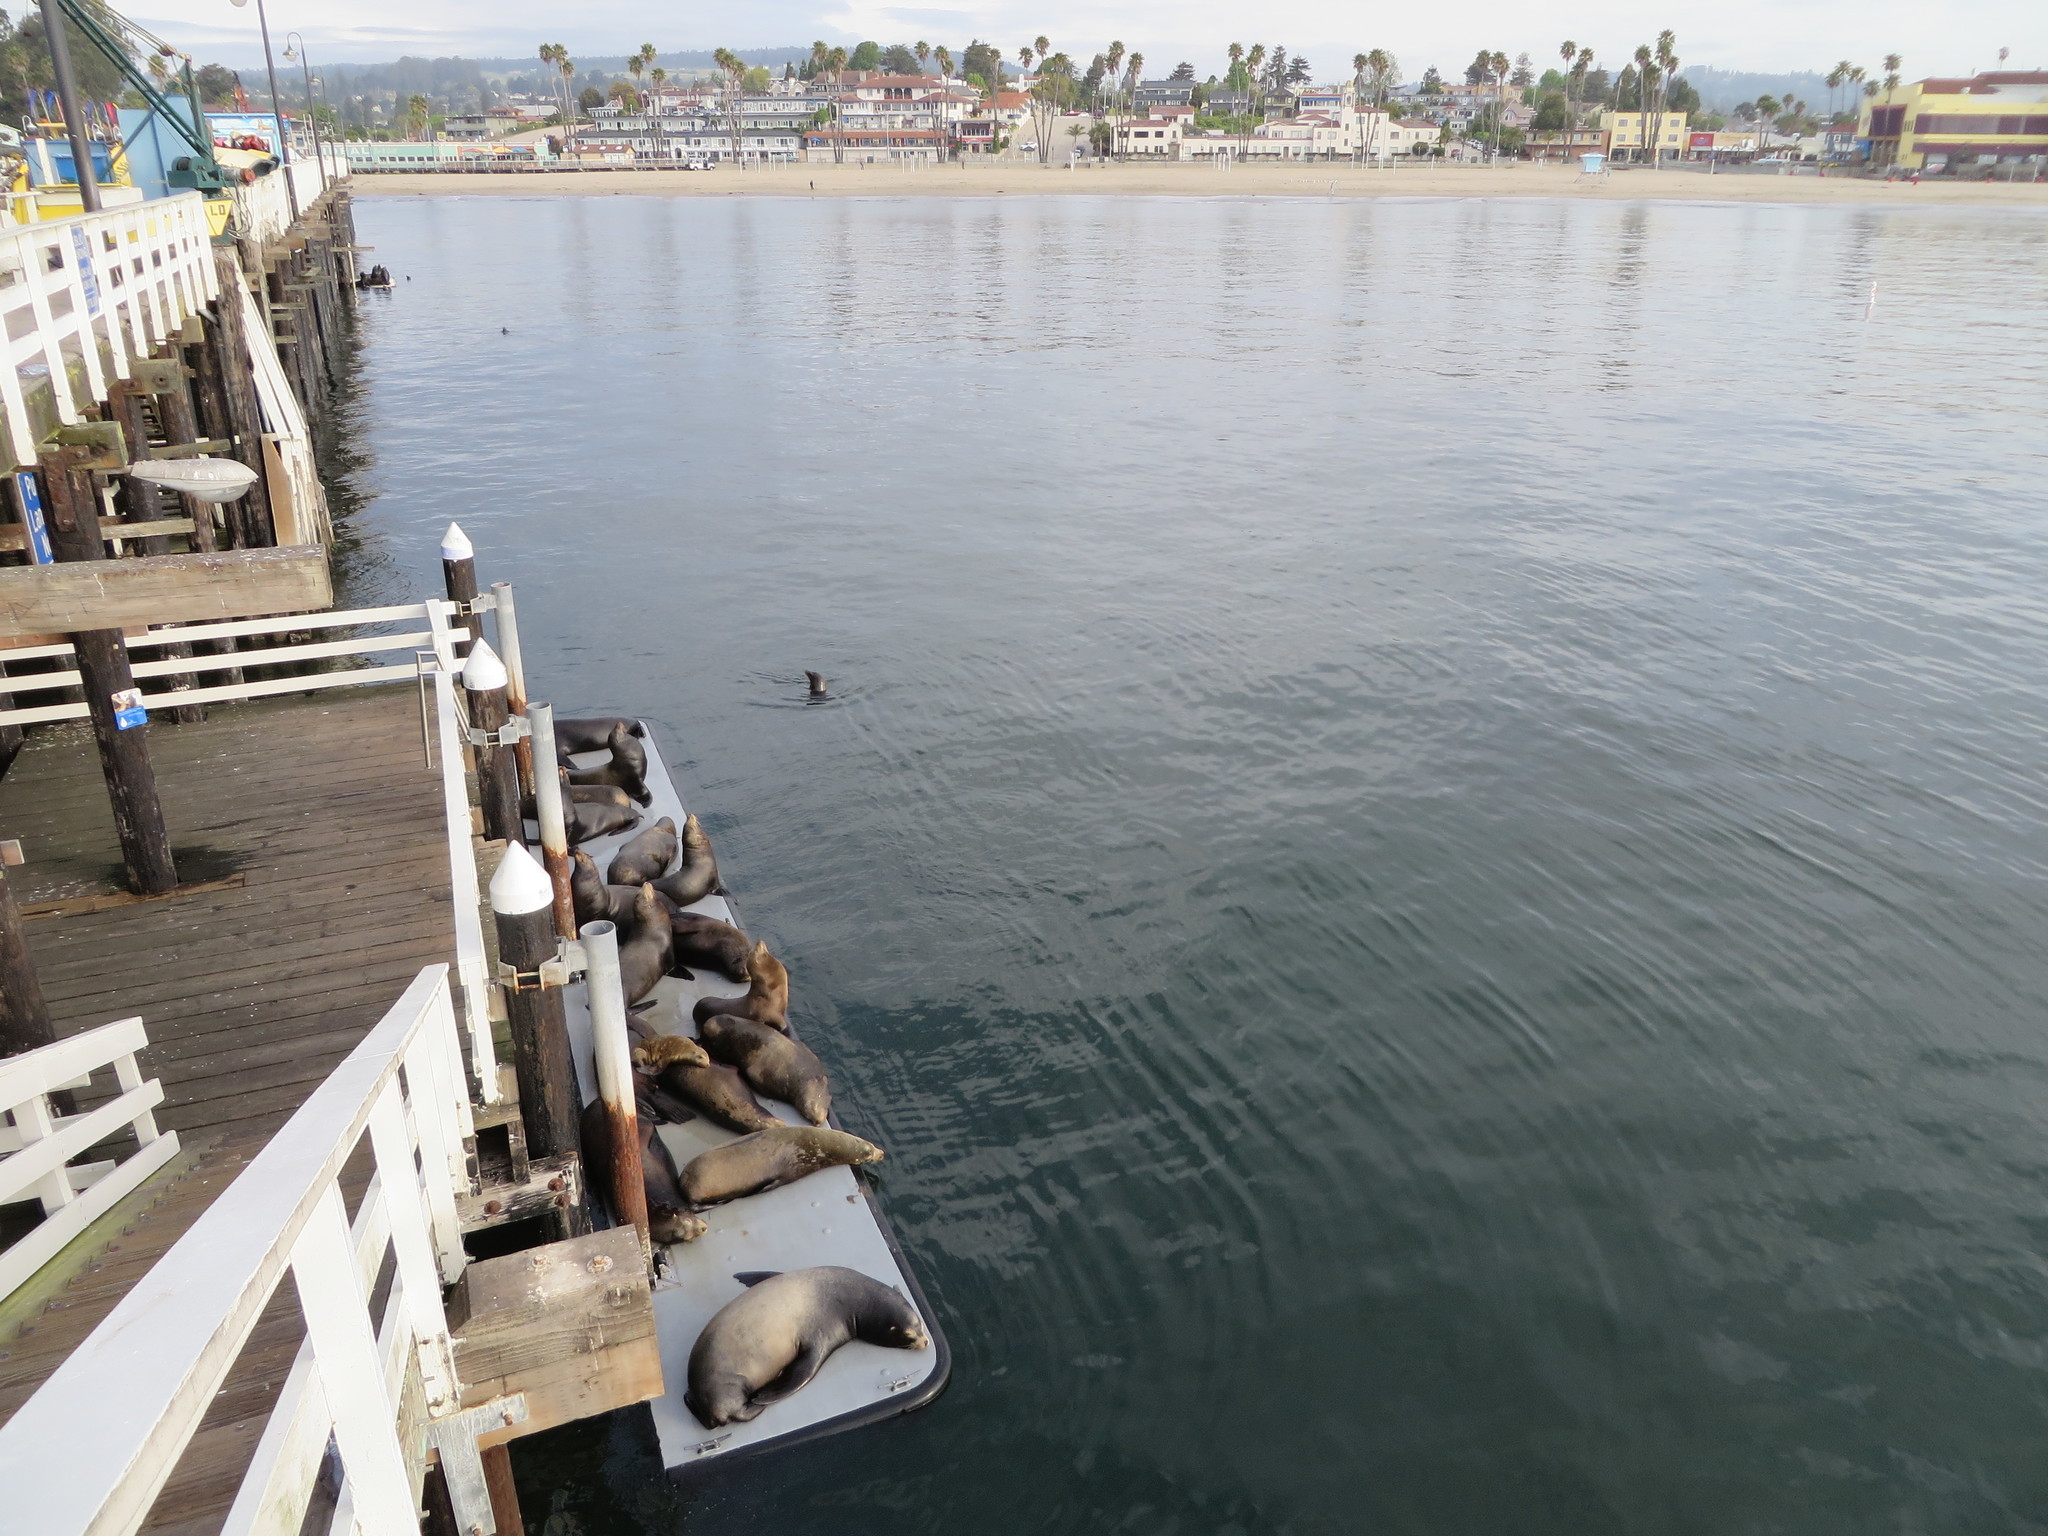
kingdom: Animalia
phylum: Chordata
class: Mammalia
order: Carnivora
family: Otariidae
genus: Zalophus
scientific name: Zalophus californianus
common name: California sea lion
